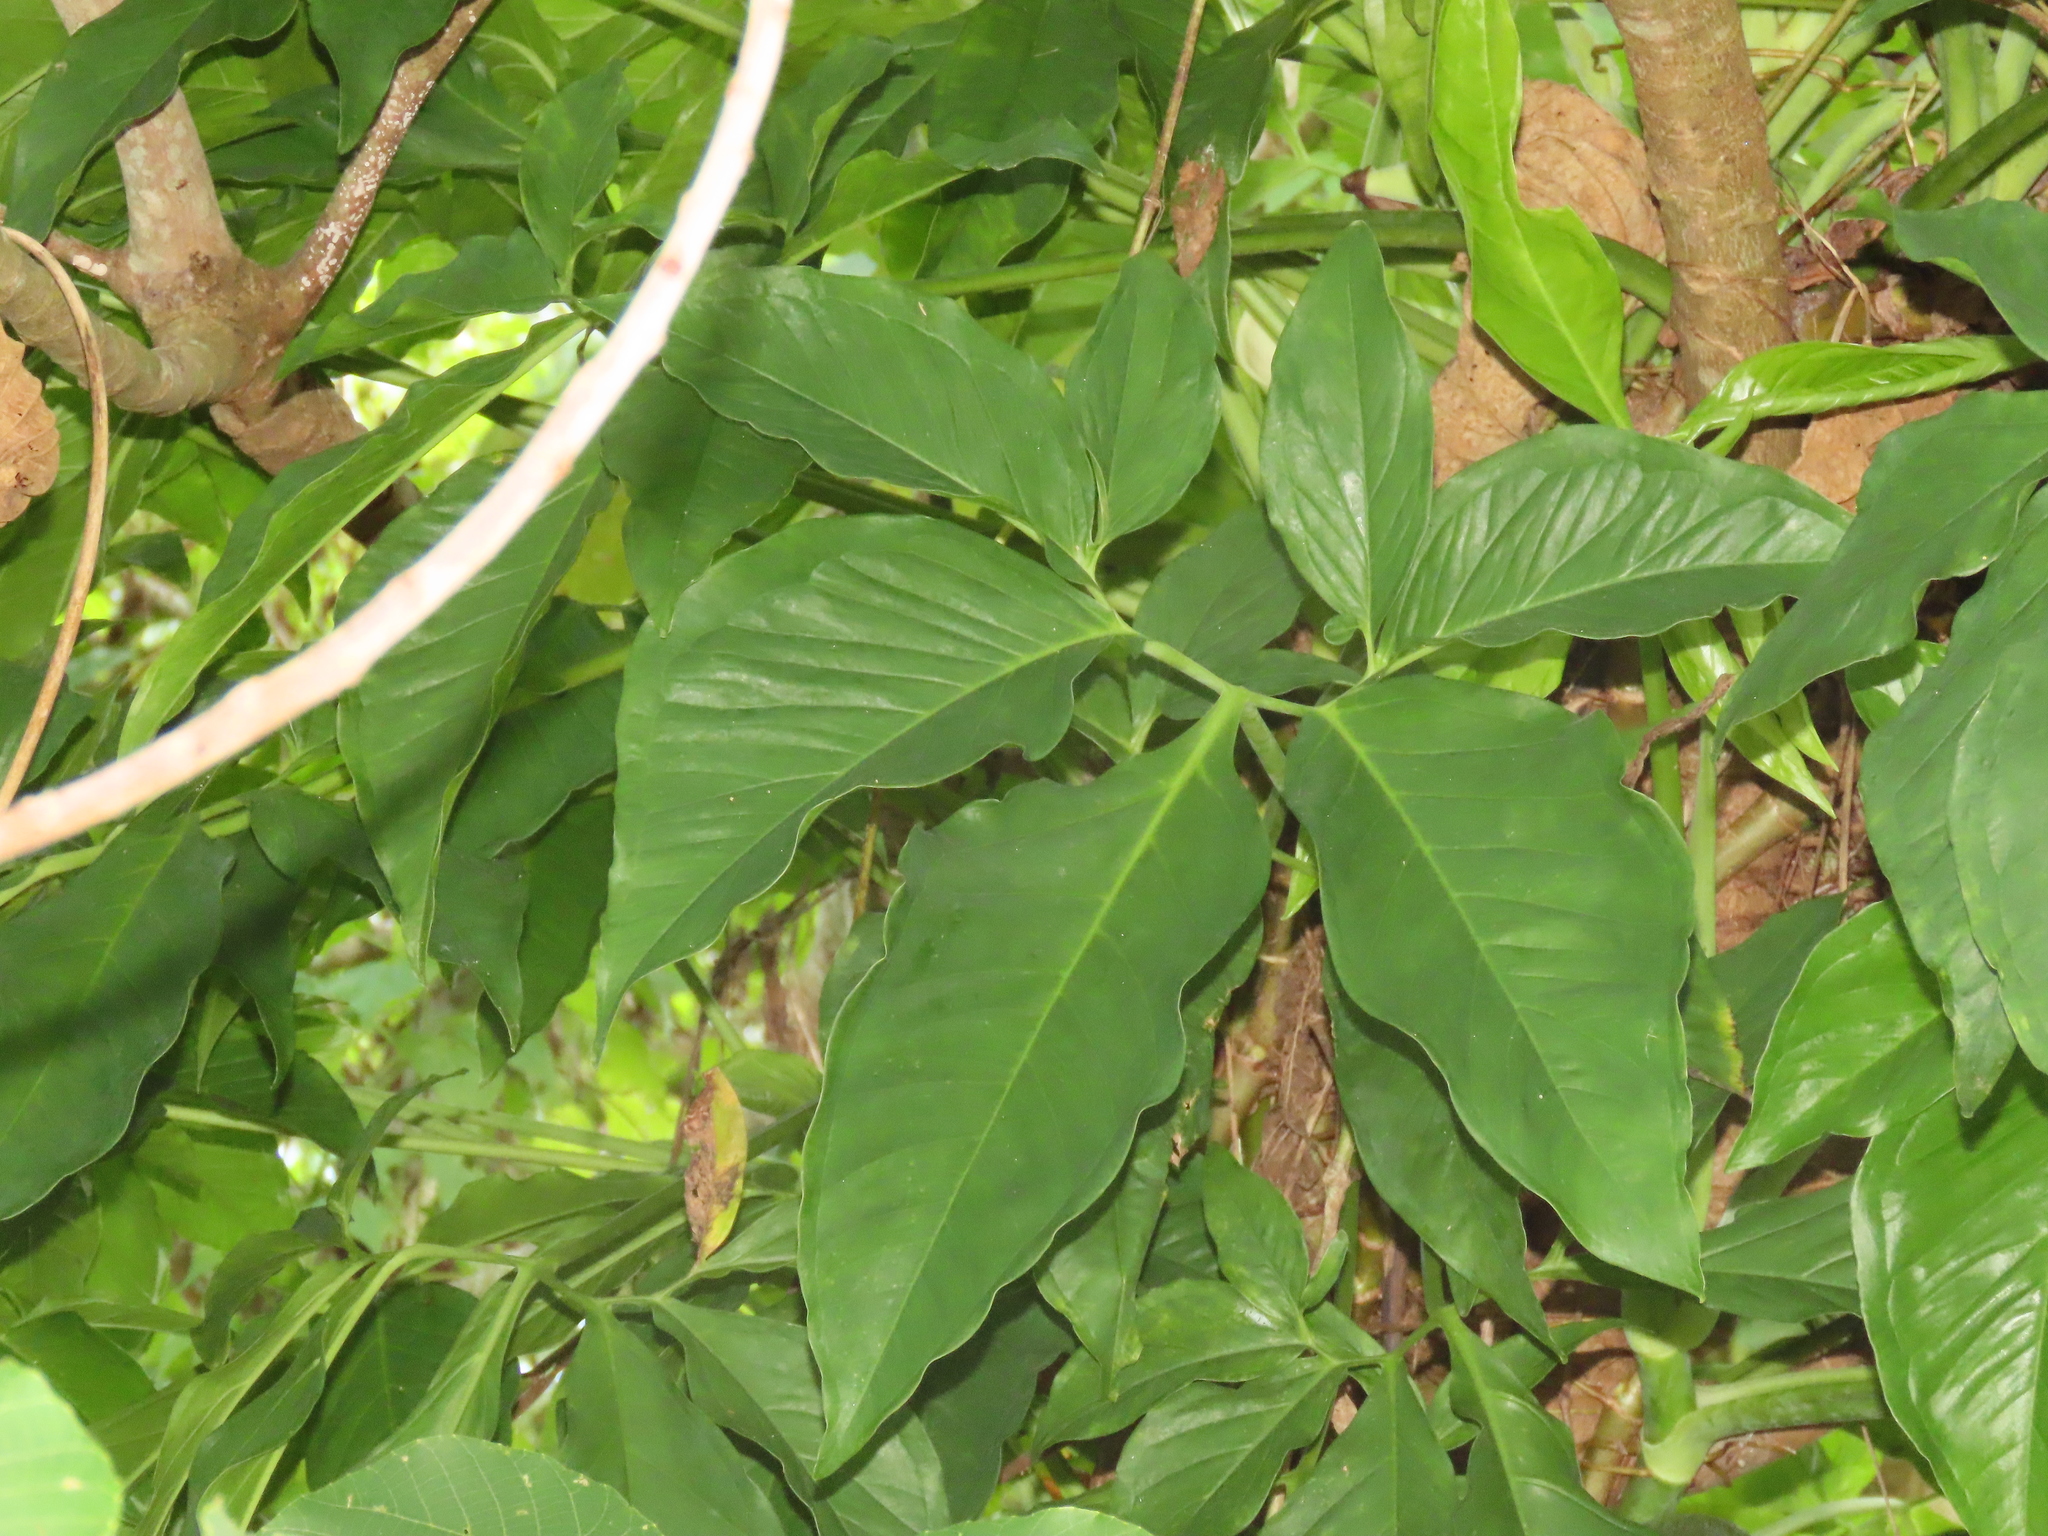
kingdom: Plantae
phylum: Tracheophyta
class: Liliopsida
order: Alismatales
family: Araceae
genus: Syngonium
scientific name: Syngonium angustatum
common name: Fivefingers
